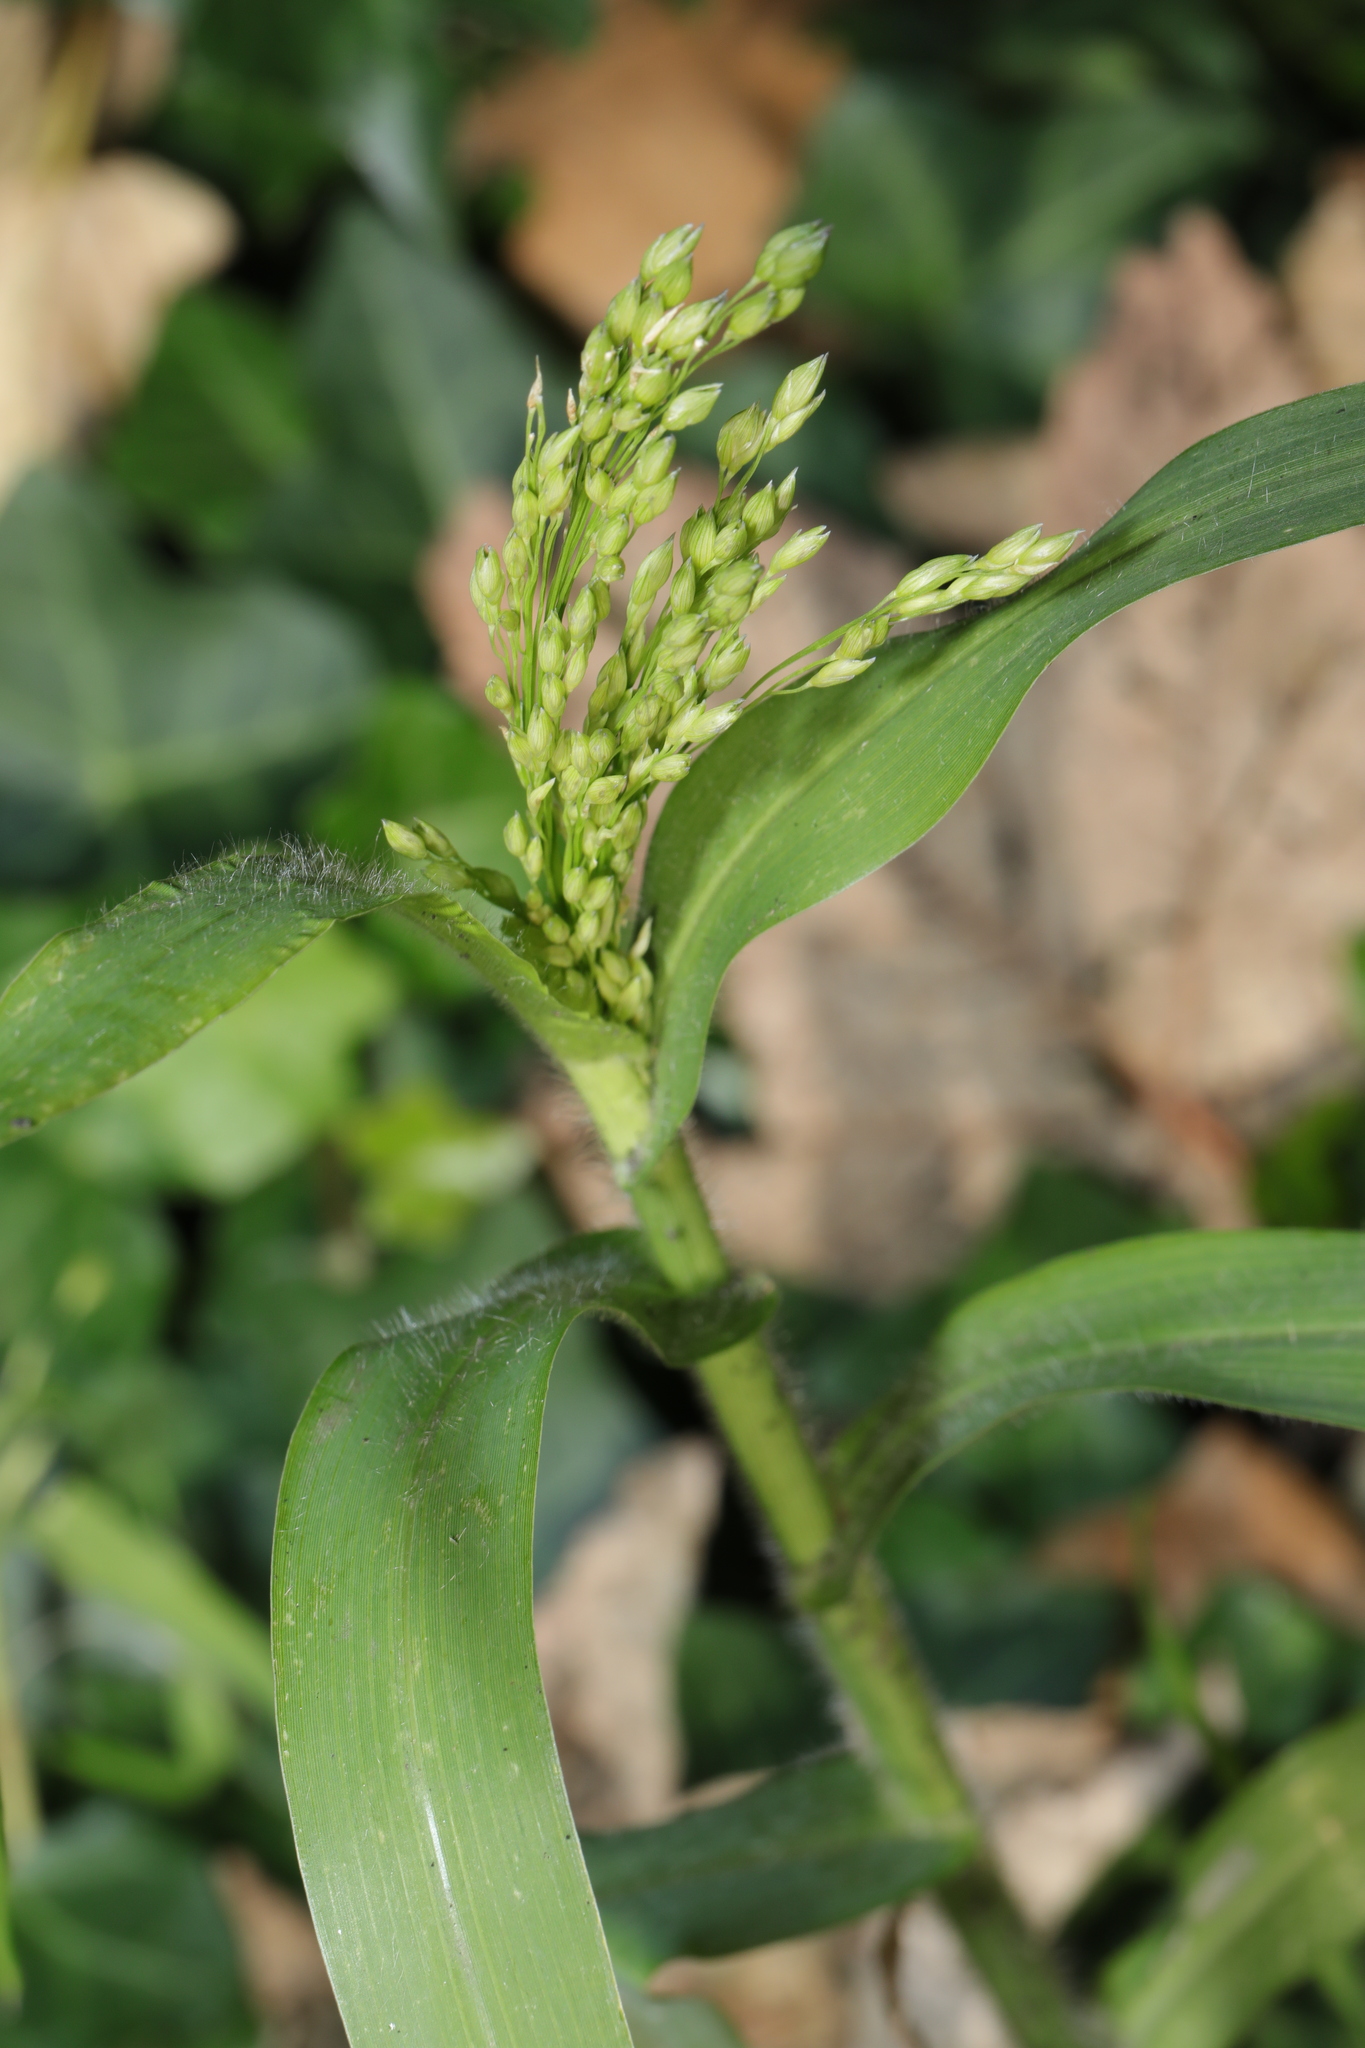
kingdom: Plantae
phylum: Tracheophyta
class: Liliopsida
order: Poales
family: Poaceae
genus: Panicum
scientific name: Panicum miliaceum
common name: Common millet
